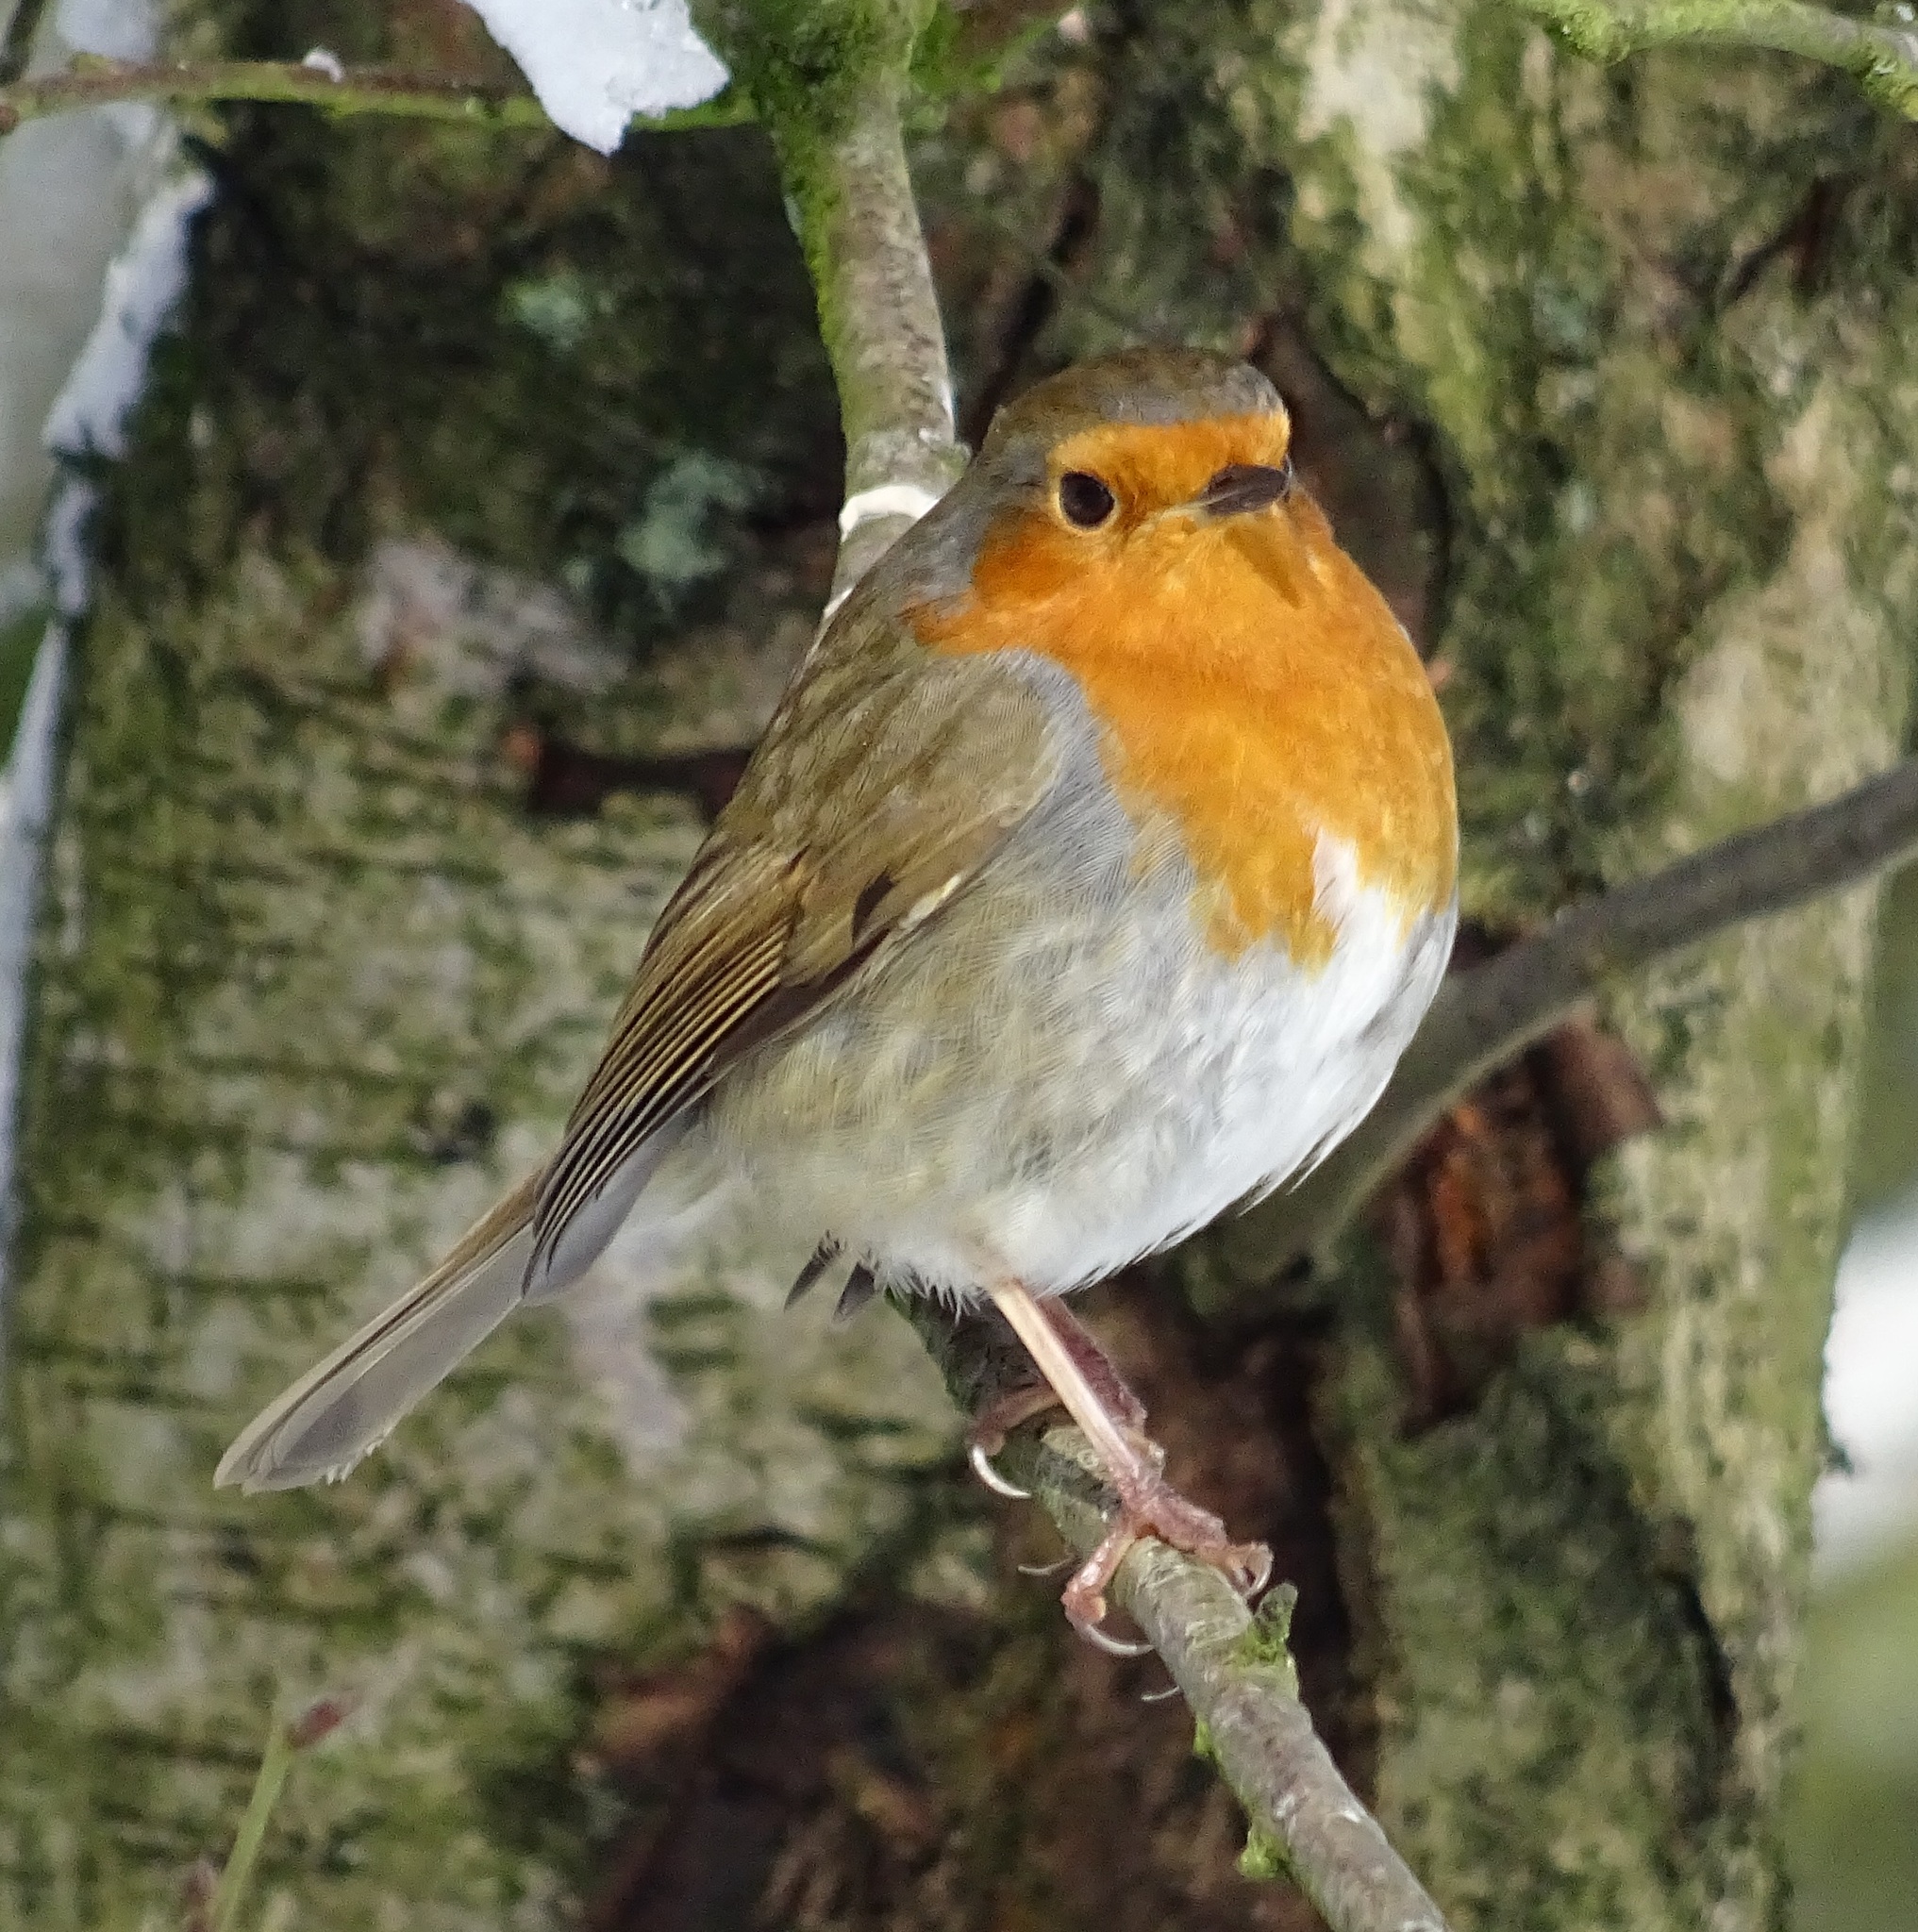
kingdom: Animalia
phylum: Chordata
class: Aves
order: Passeriformes
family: Muscicapidae
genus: Erithacus
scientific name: Erithacus rubecula
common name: European robin
